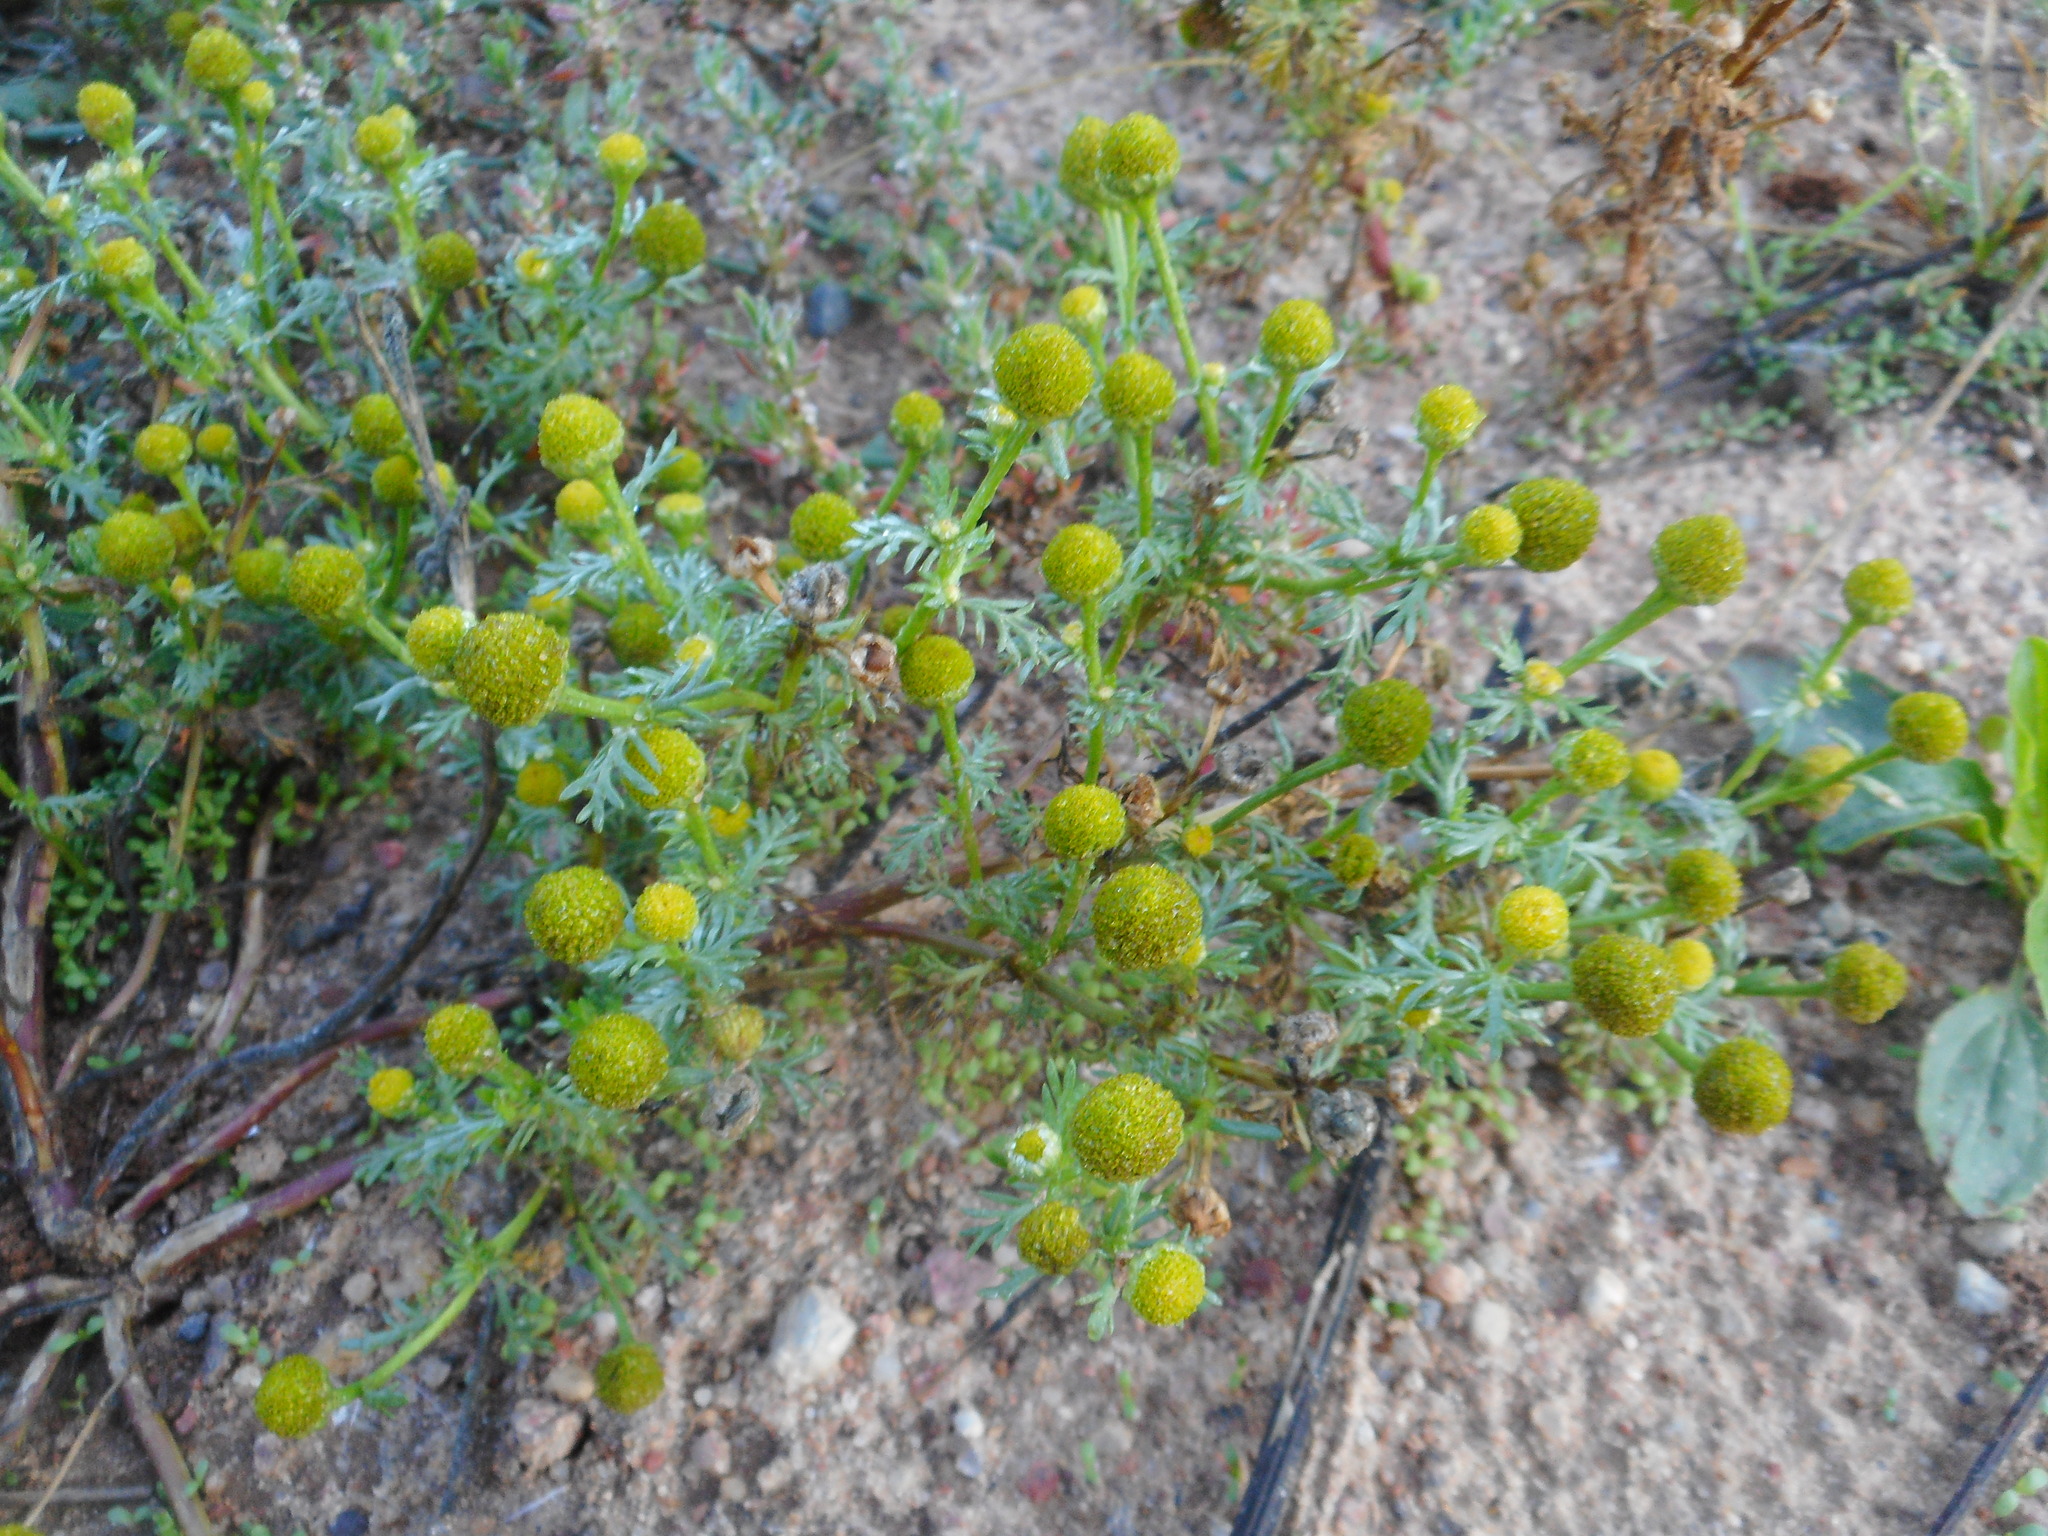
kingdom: Plantae
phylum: Tracheophyta
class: Magnoliopsida
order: Asterales
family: Asteraceae
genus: Matricaria
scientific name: Matricaria discoidea
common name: Disc mayweed
